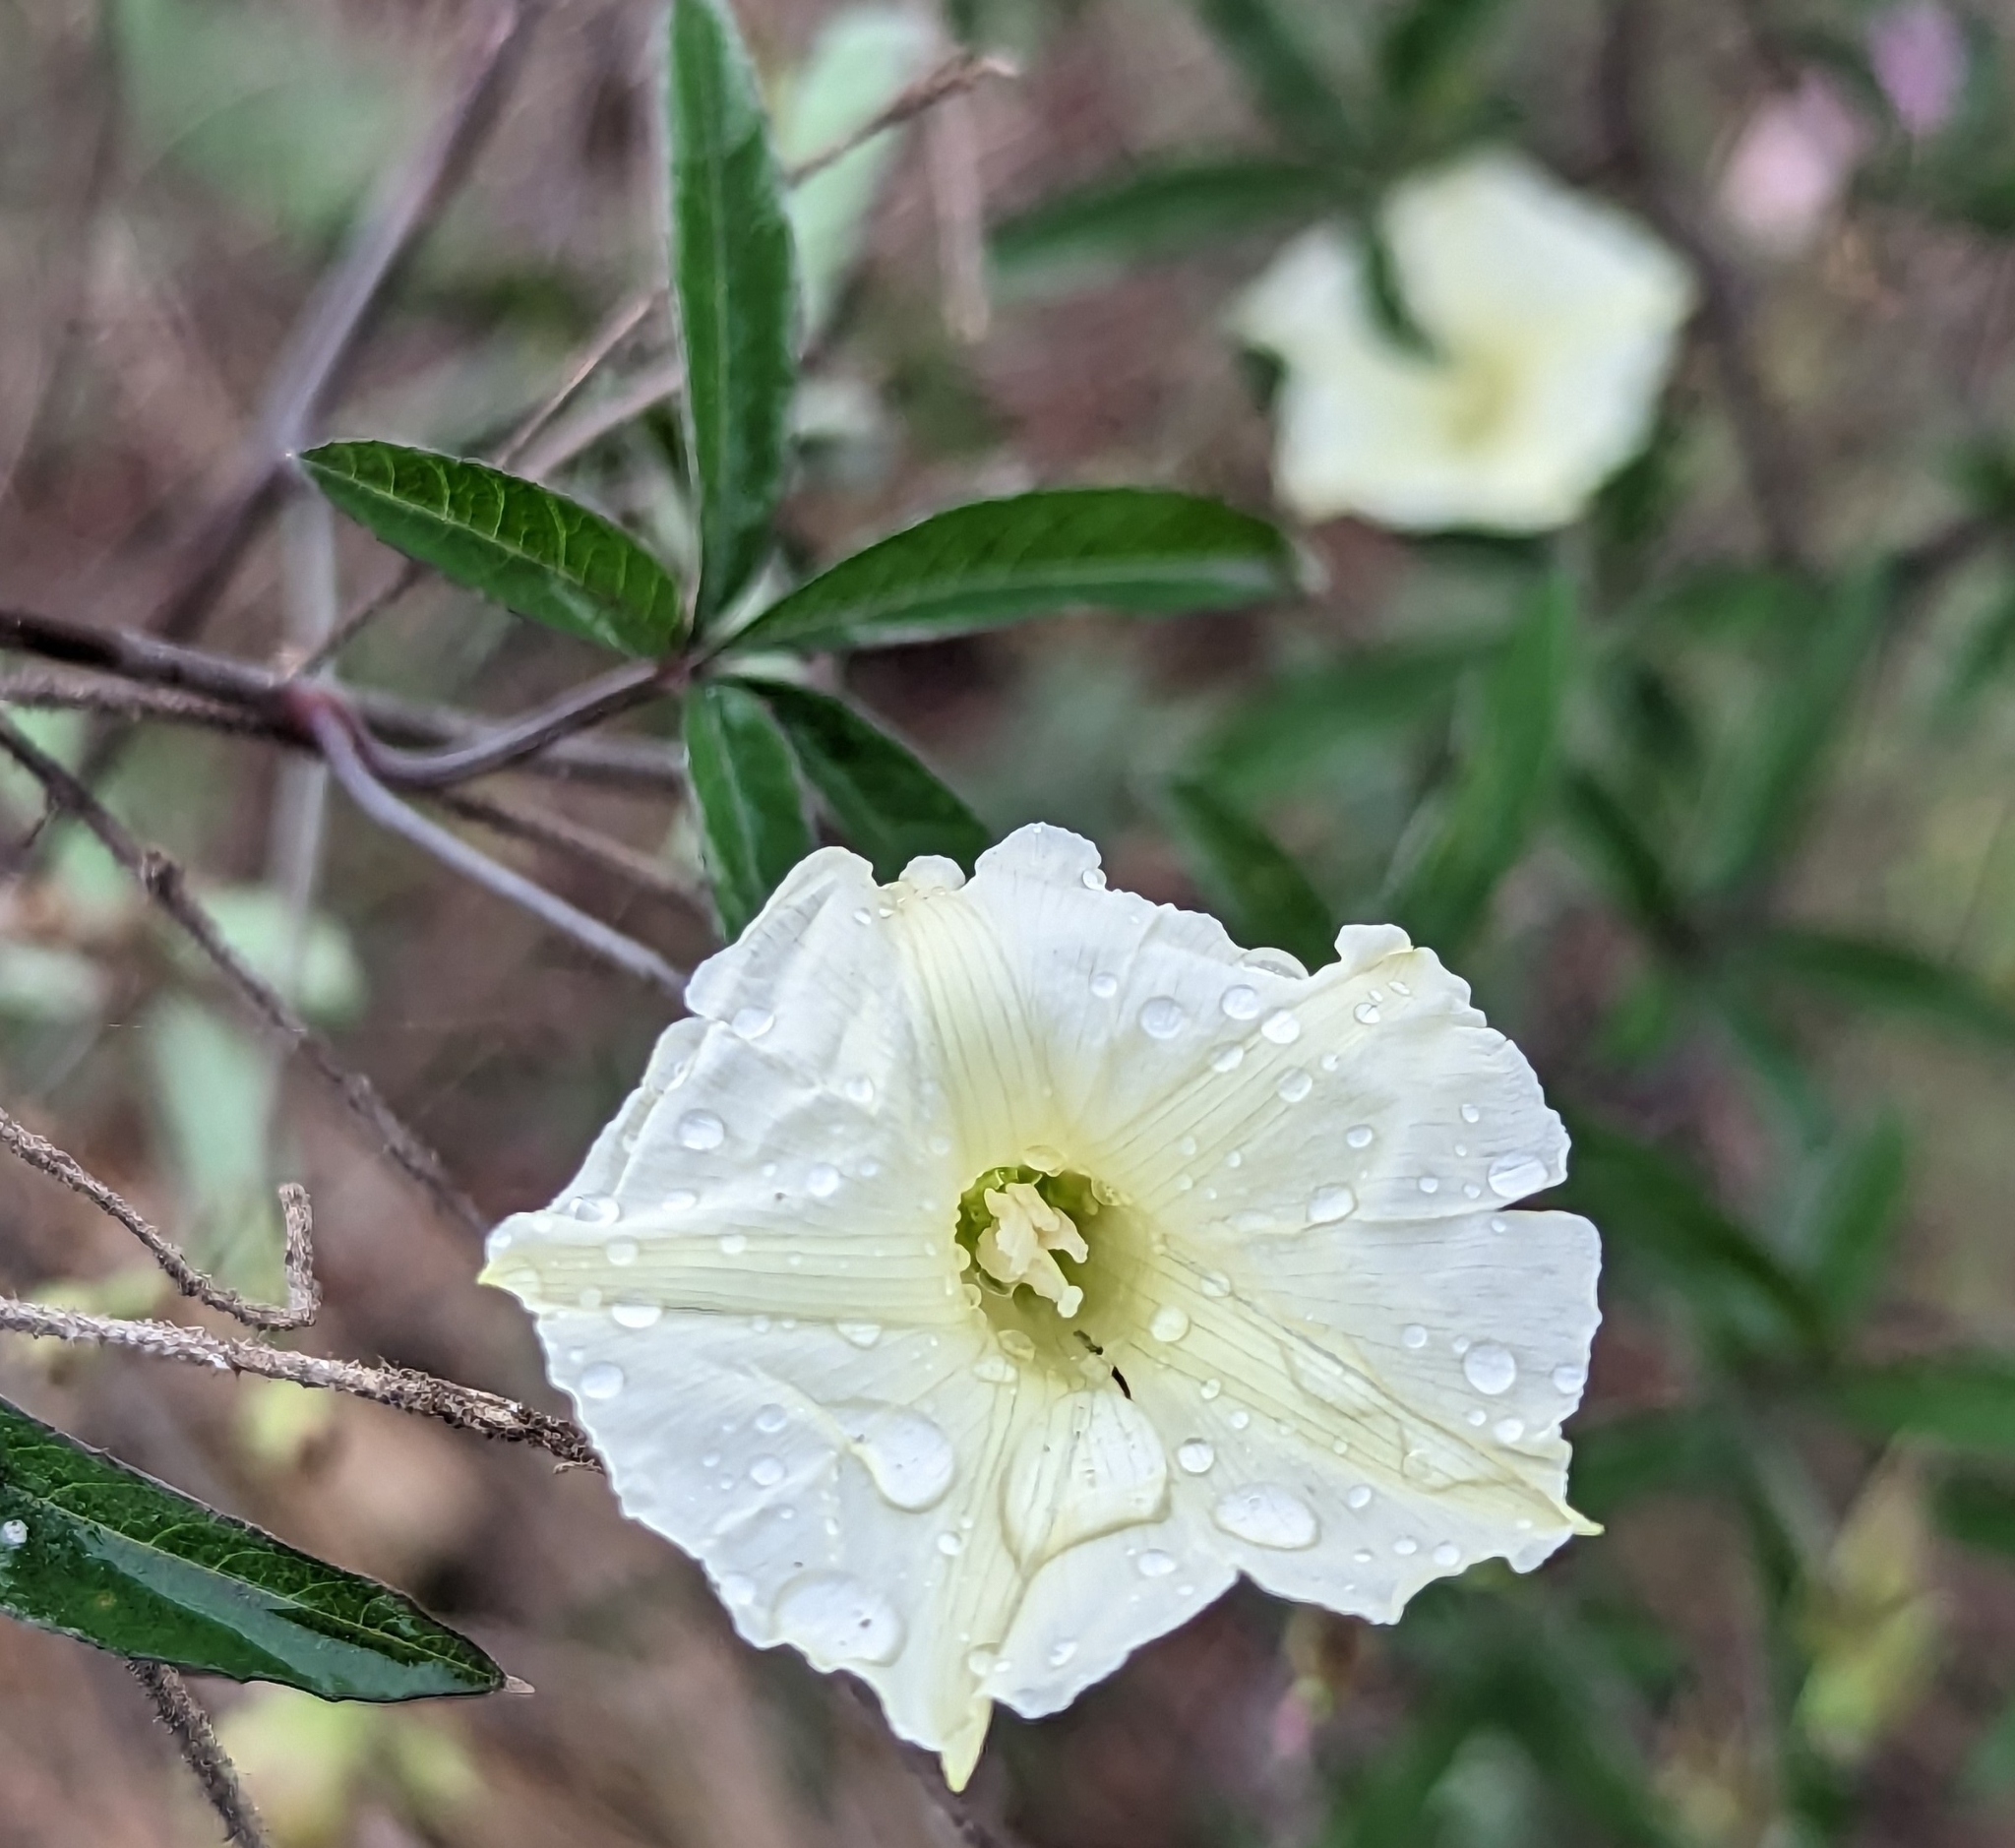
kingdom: Plantae
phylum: Tracheophyta
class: Magnoliopsida
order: Solanales
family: Convolvulaceae
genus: Distimake
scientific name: Distimake quinquefolius
